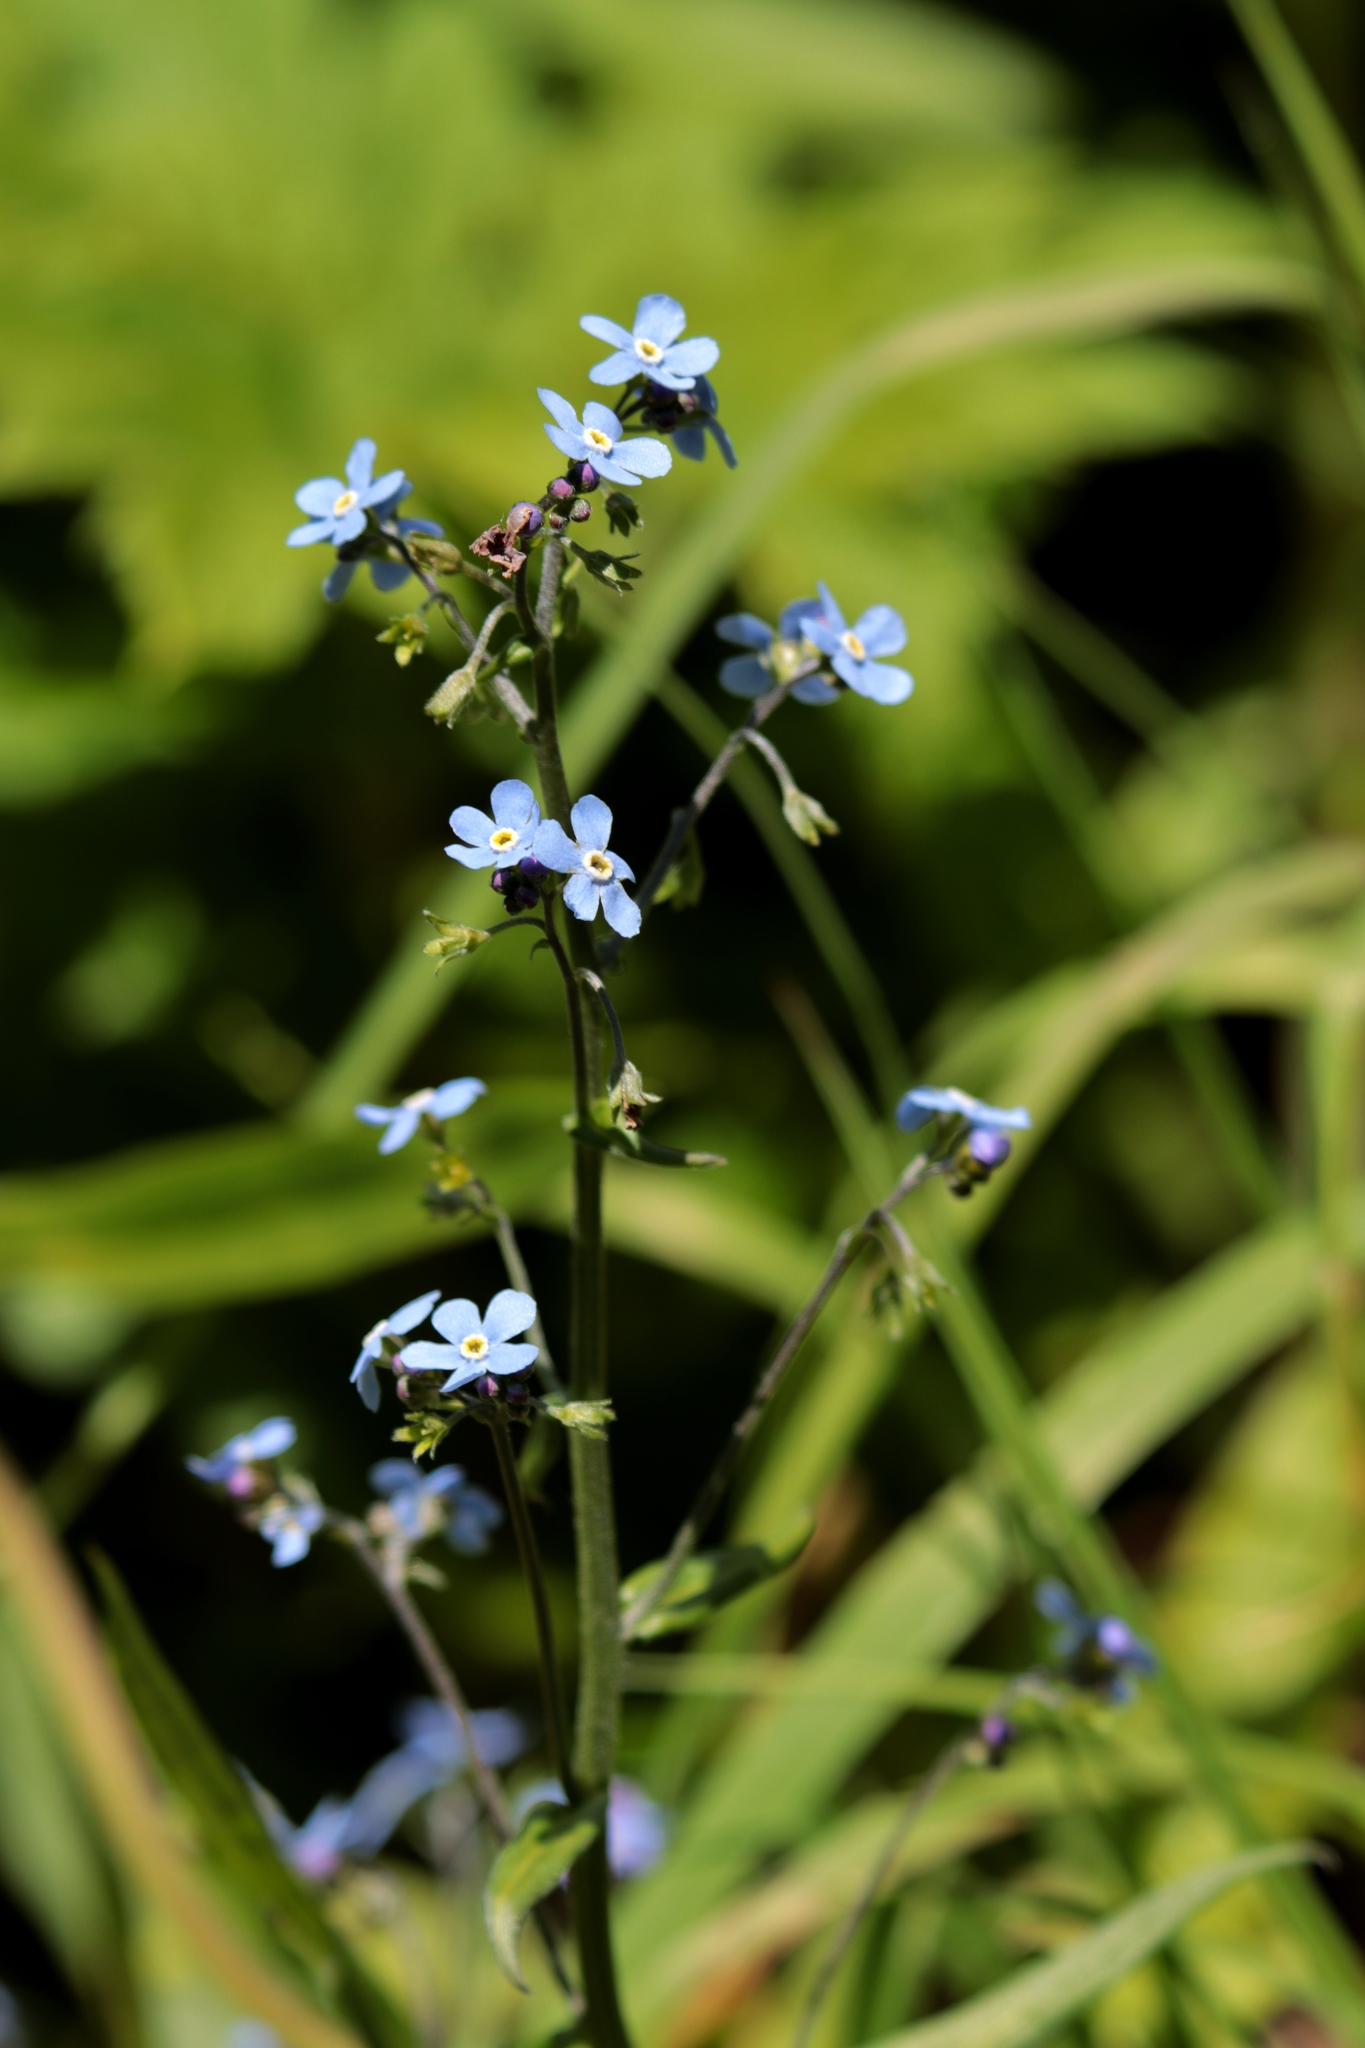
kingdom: Plantae
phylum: Tracheophyta
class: Magnoliopsida
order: Boraginales
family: Boraginaceae
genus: Myosotis
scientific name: Myosotis asiatica
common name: Asian forget-me-not
